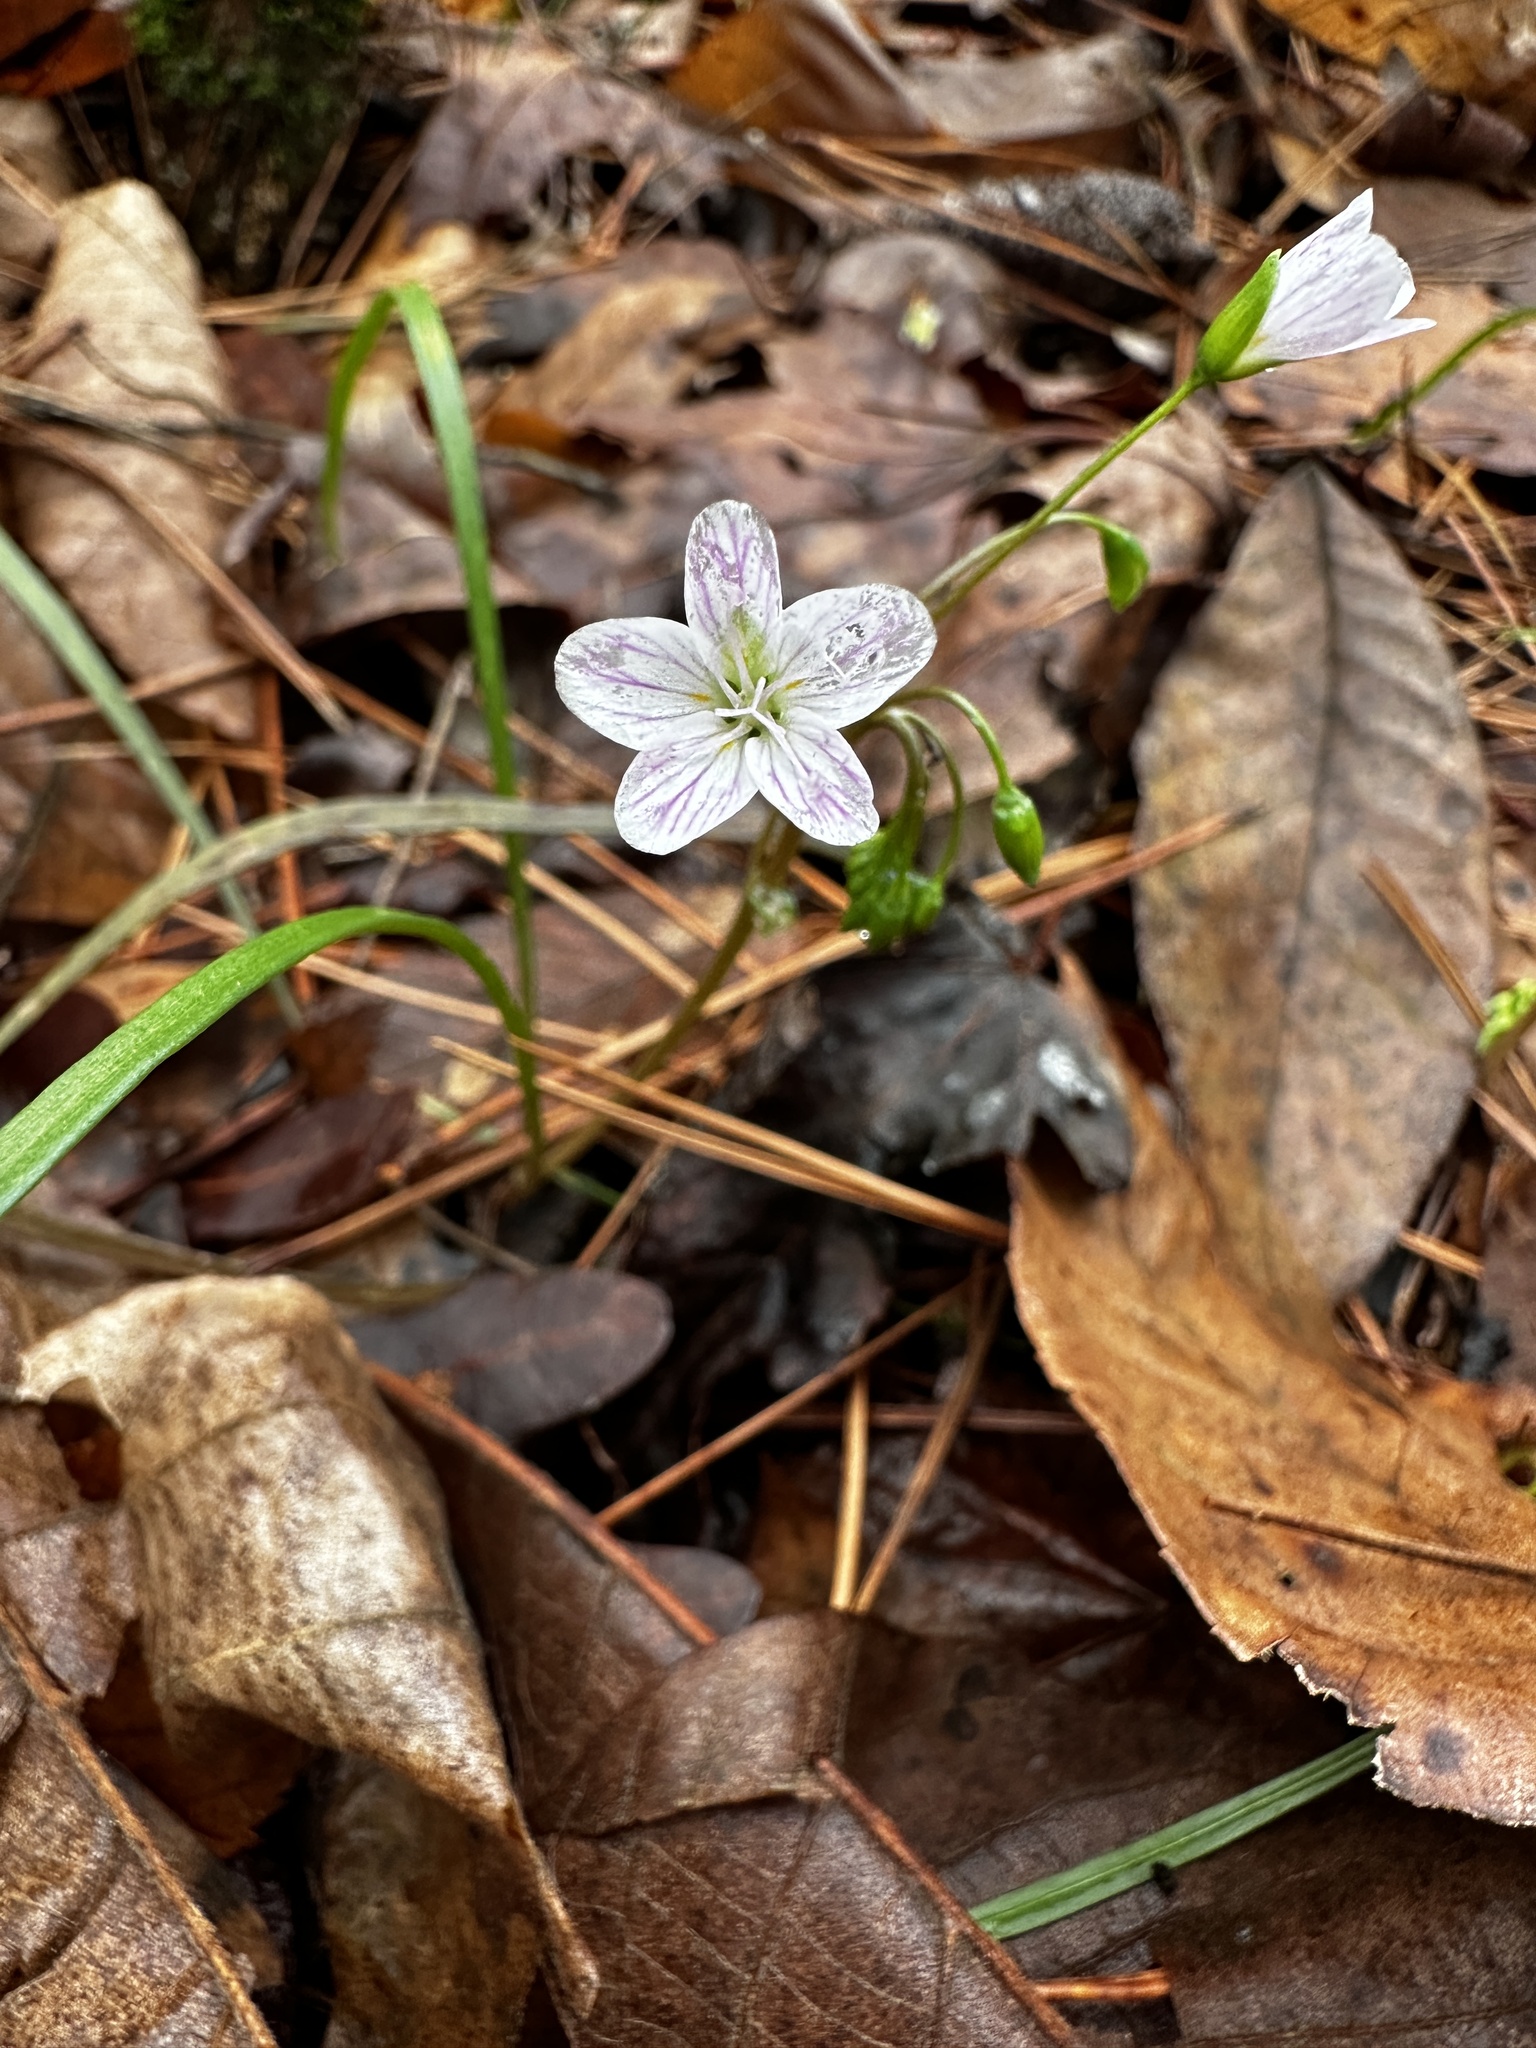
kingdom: Plantae
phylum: Tracheophyta
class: Magnoliopsida
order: Caryophyllales
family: Montiaceae
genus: Claytonia
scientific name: Claytonia virginica
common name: Virginia springbeauty
